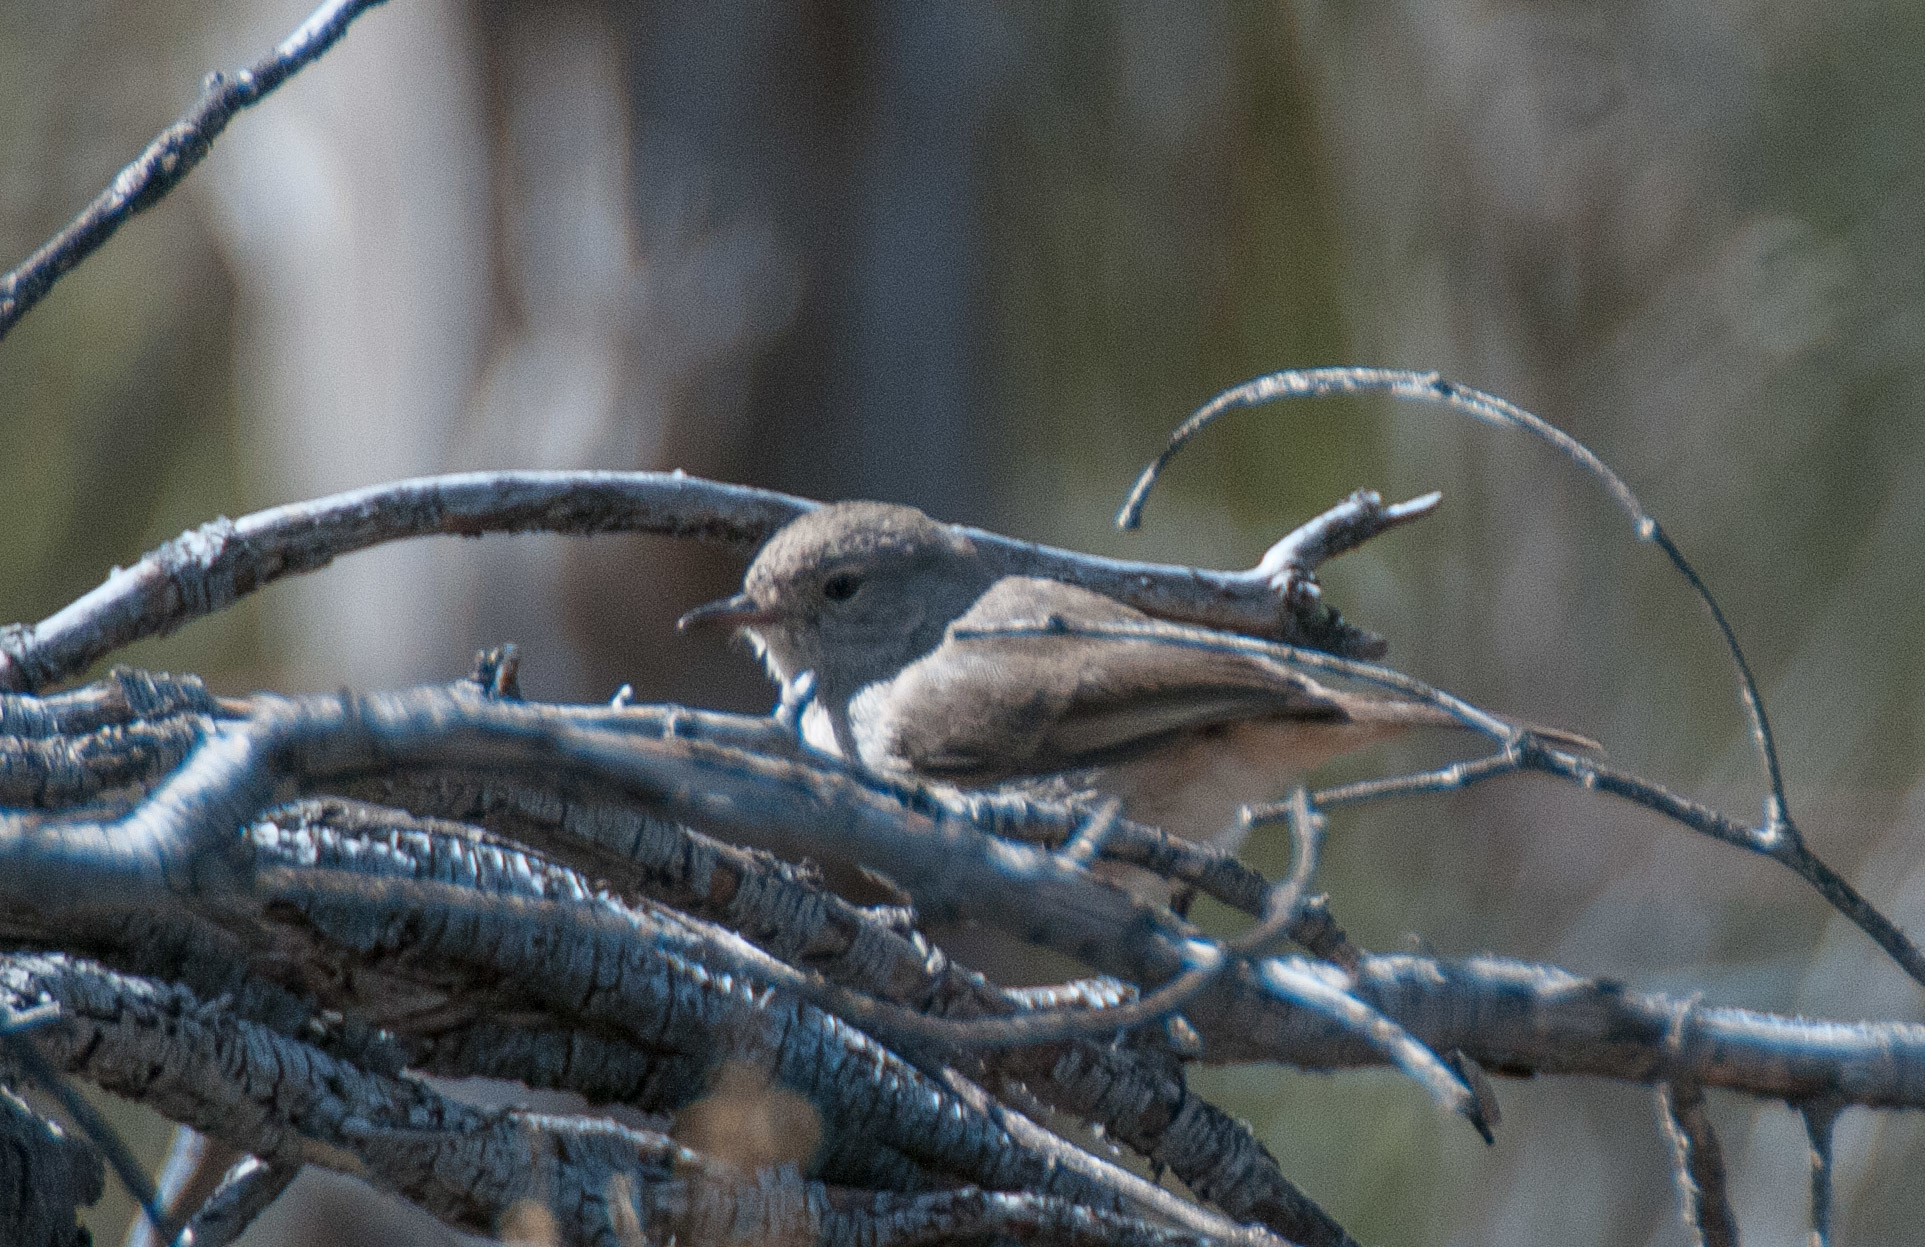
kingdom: Animalia
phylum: Chordata
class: Aves
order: Passeriformes
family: Acanthizidae
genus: Acanthiza
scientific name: Acanthiza apicalis
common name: Inland thornbill
